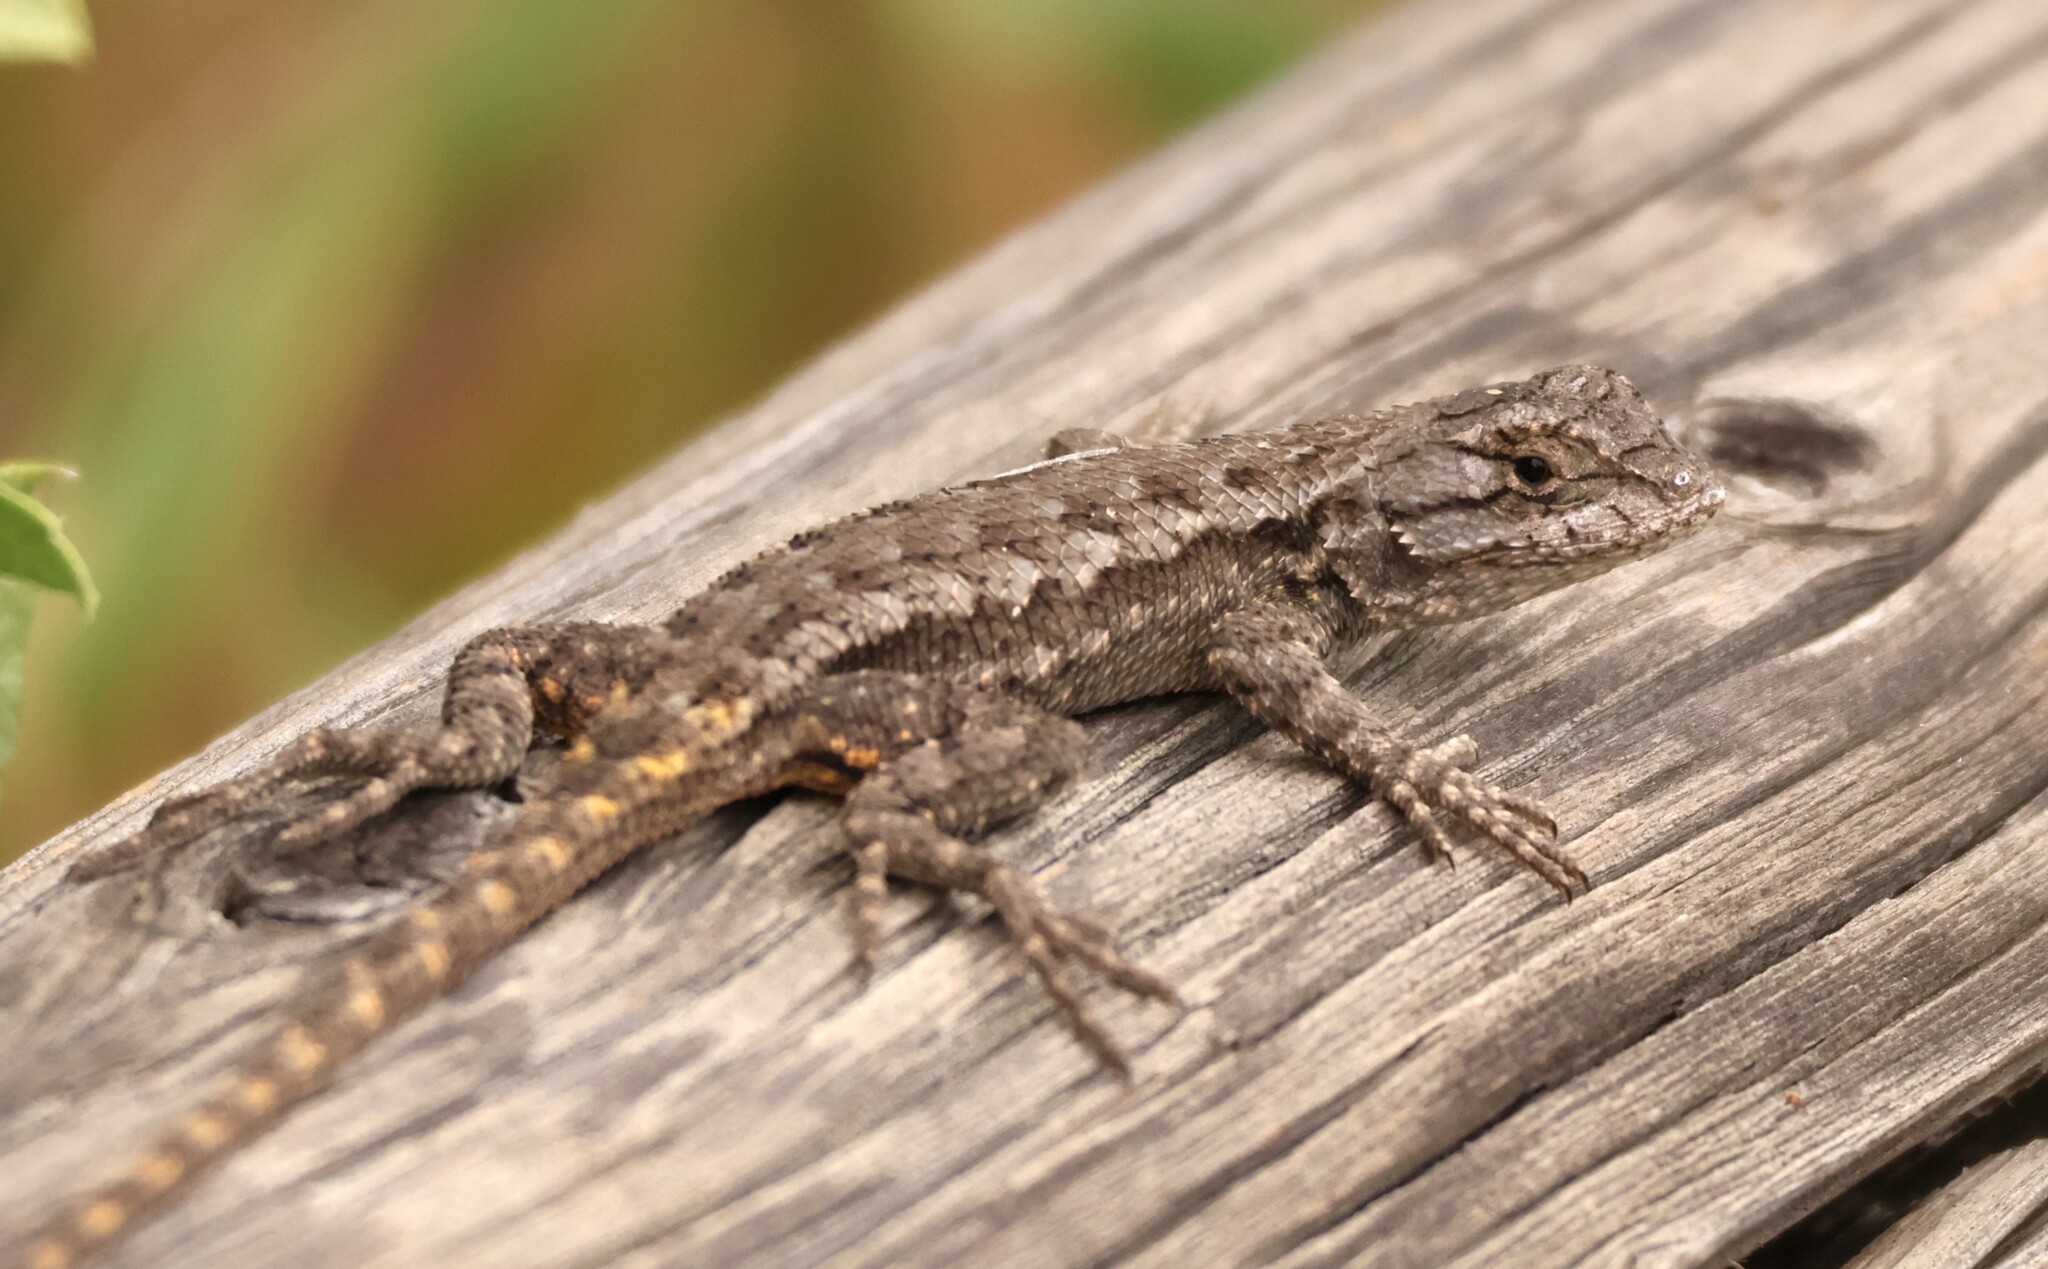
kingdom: Animalia
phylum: Chordata
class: Squamata
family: Phrynosomatidae
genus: Sceloporus
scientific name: Sceloporus occidentalis
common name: Western fence lizard
